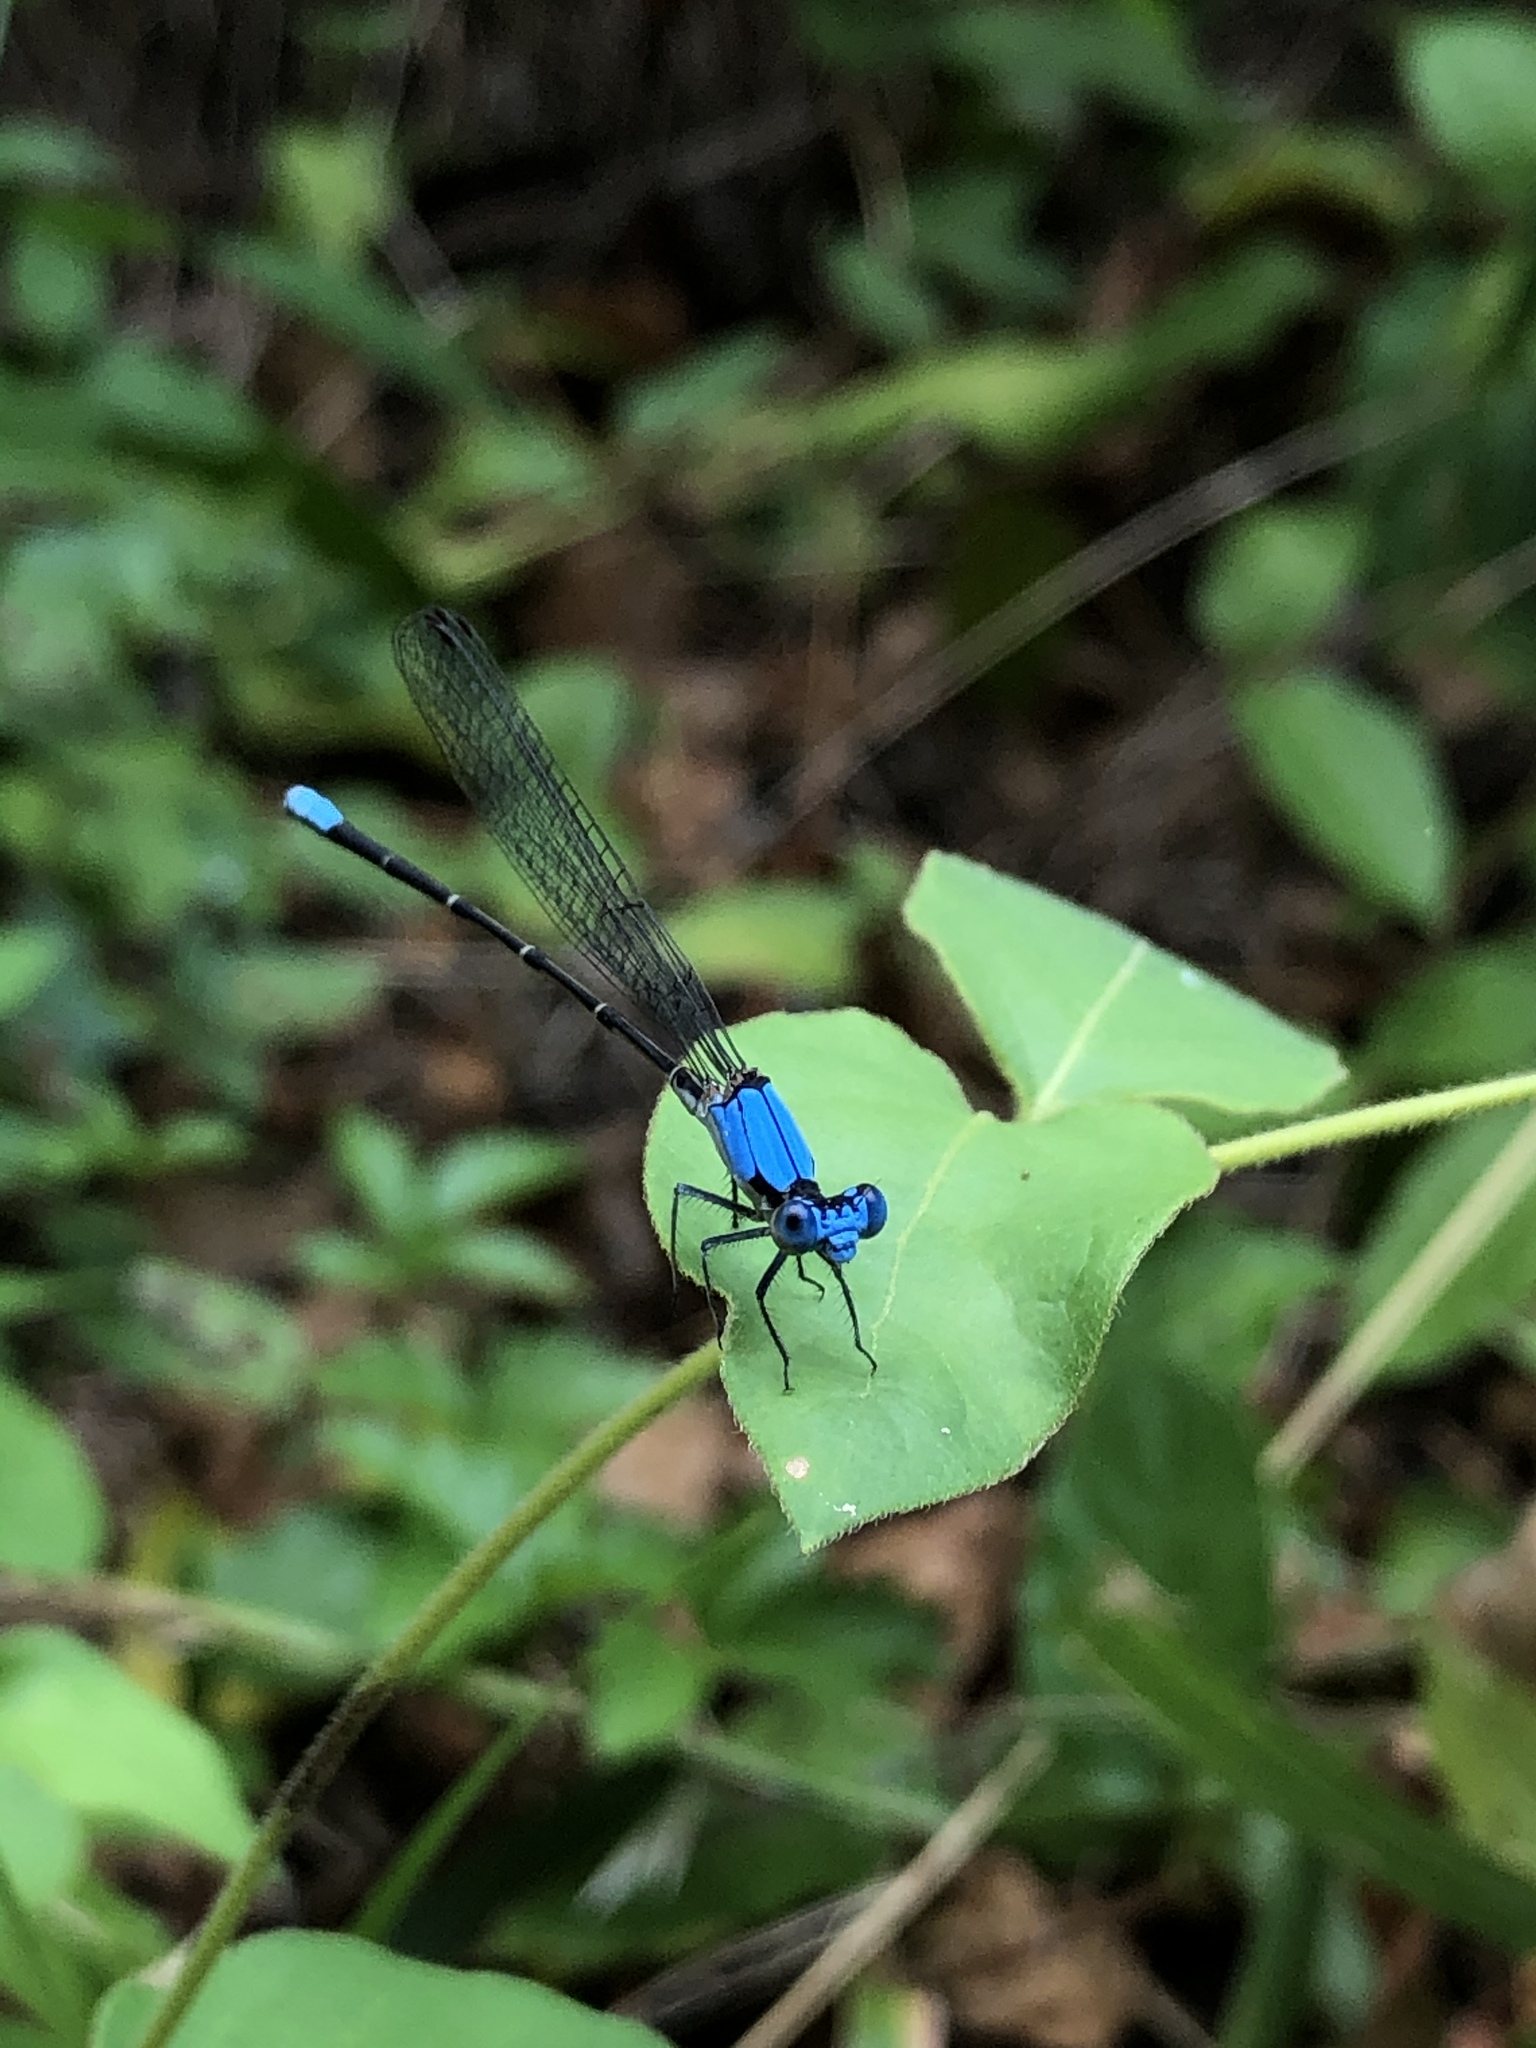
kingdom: Animalia
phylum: Arthropoda
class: Insecta
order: Odonata
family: Coenagrionidae
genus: Argia
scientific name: Argia apicalis
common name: Blue-fronted dancer
